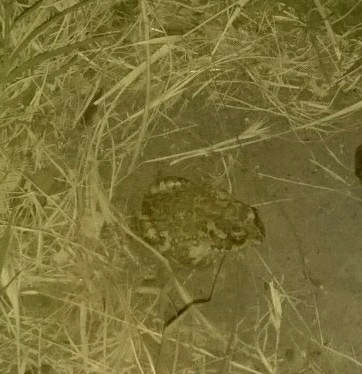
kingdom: Animalia
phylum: Chordata
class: Amphibia
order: Anura
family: Bufonidae
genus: Bufotes
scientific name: Bufotes viridis
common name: European green toad
